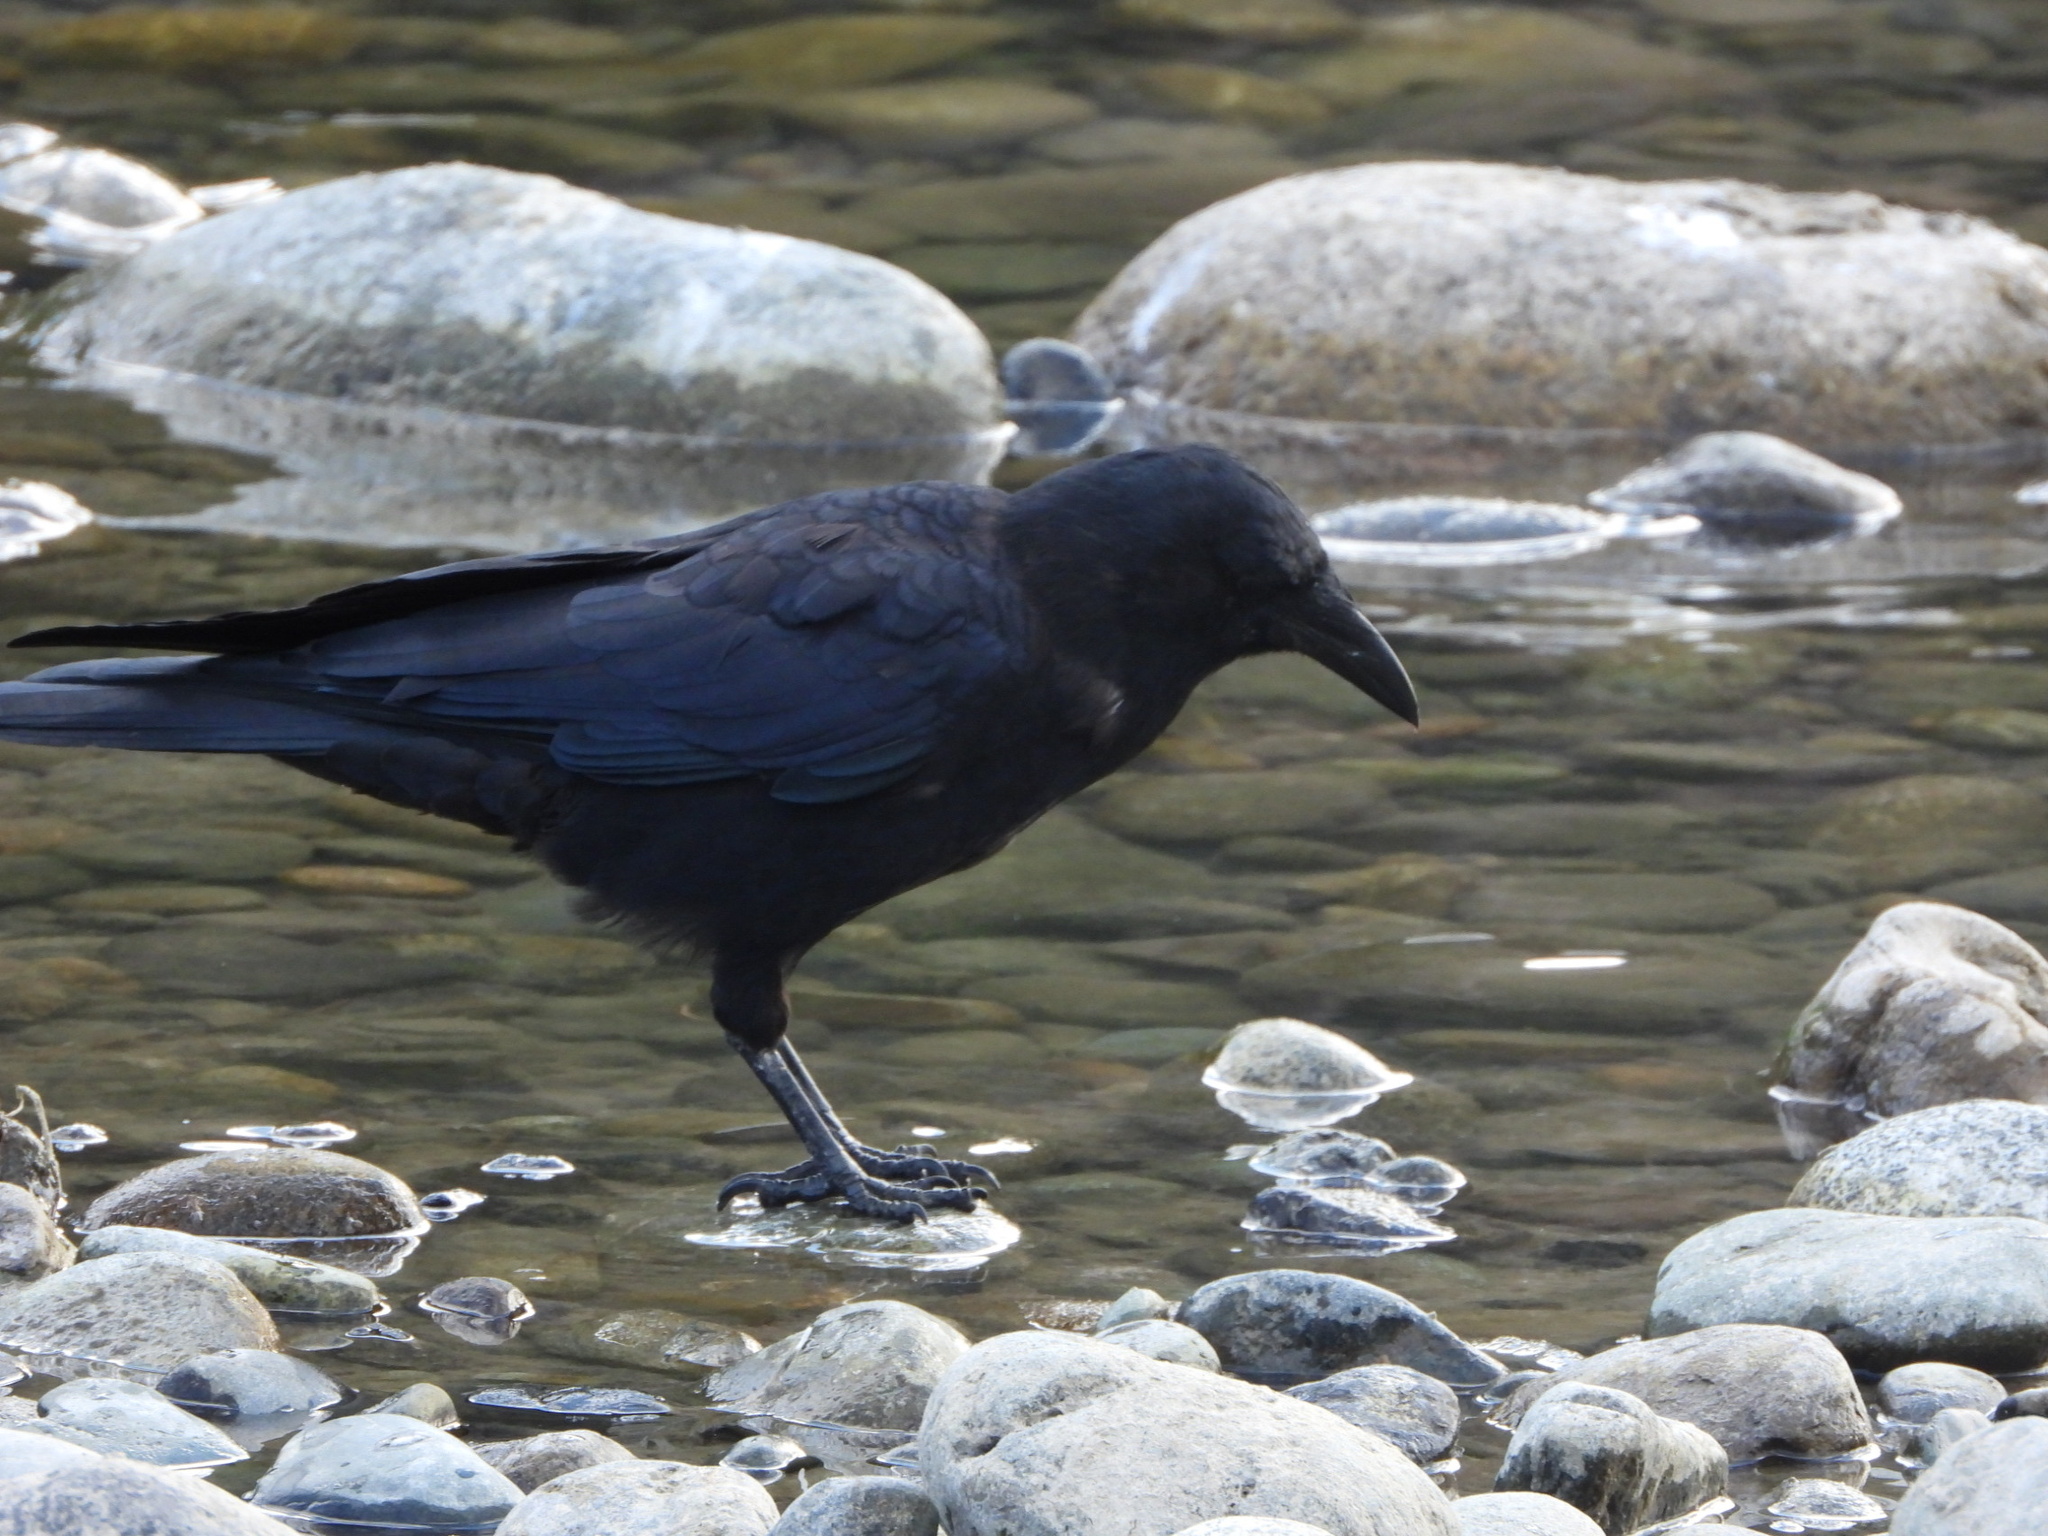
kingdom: Animalia
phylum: Chordata
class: Aves
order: Passeriformes
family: Corvidae
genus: Corvus
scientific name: Corvus brachyrhynchos
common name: American crow
